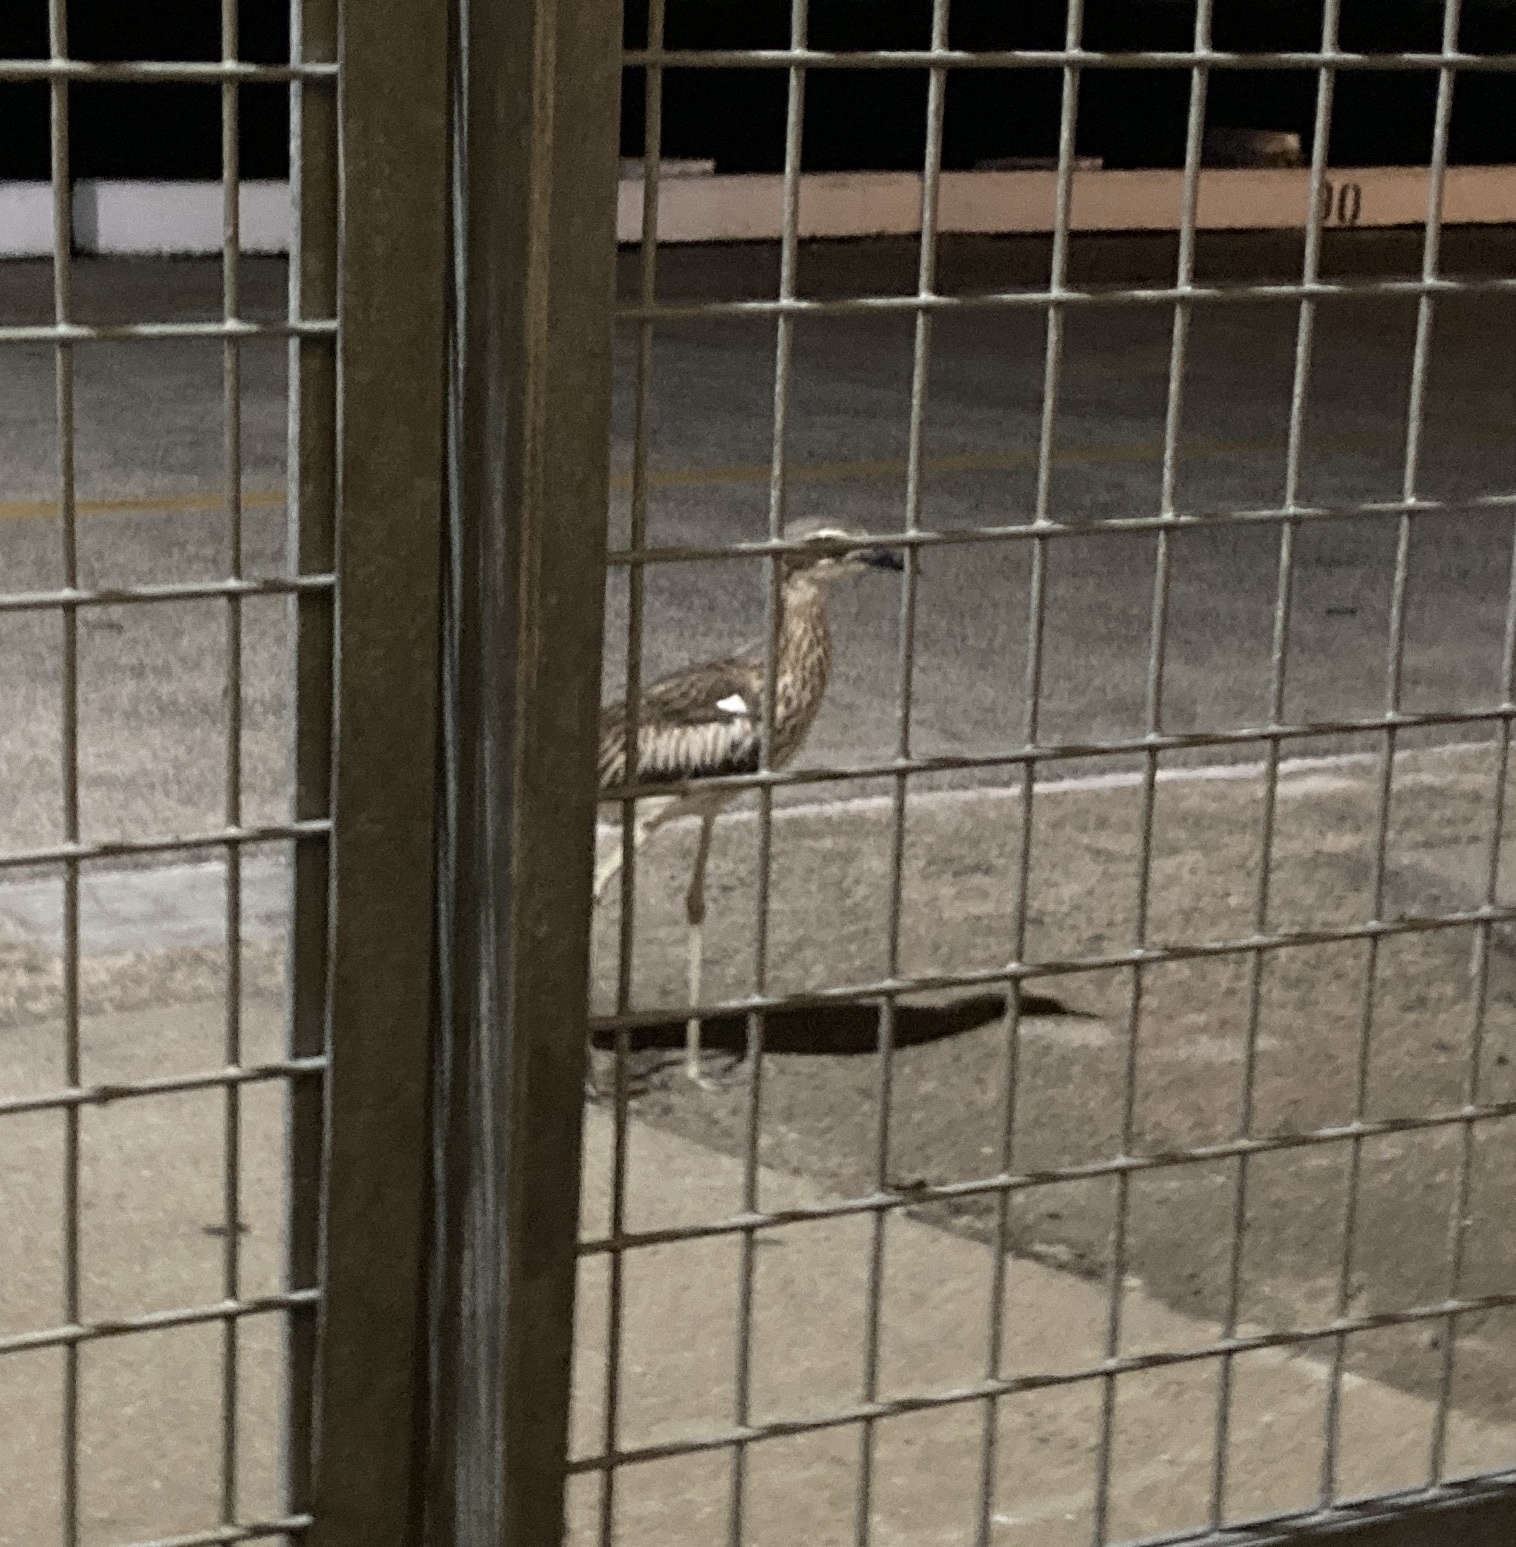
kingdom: Animalia
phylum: Chordata
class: Aves
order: Charadriiformes
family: Burhinidae
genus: Burhinus
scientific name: Burhinus grallarius
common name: Bush stone-curlew
